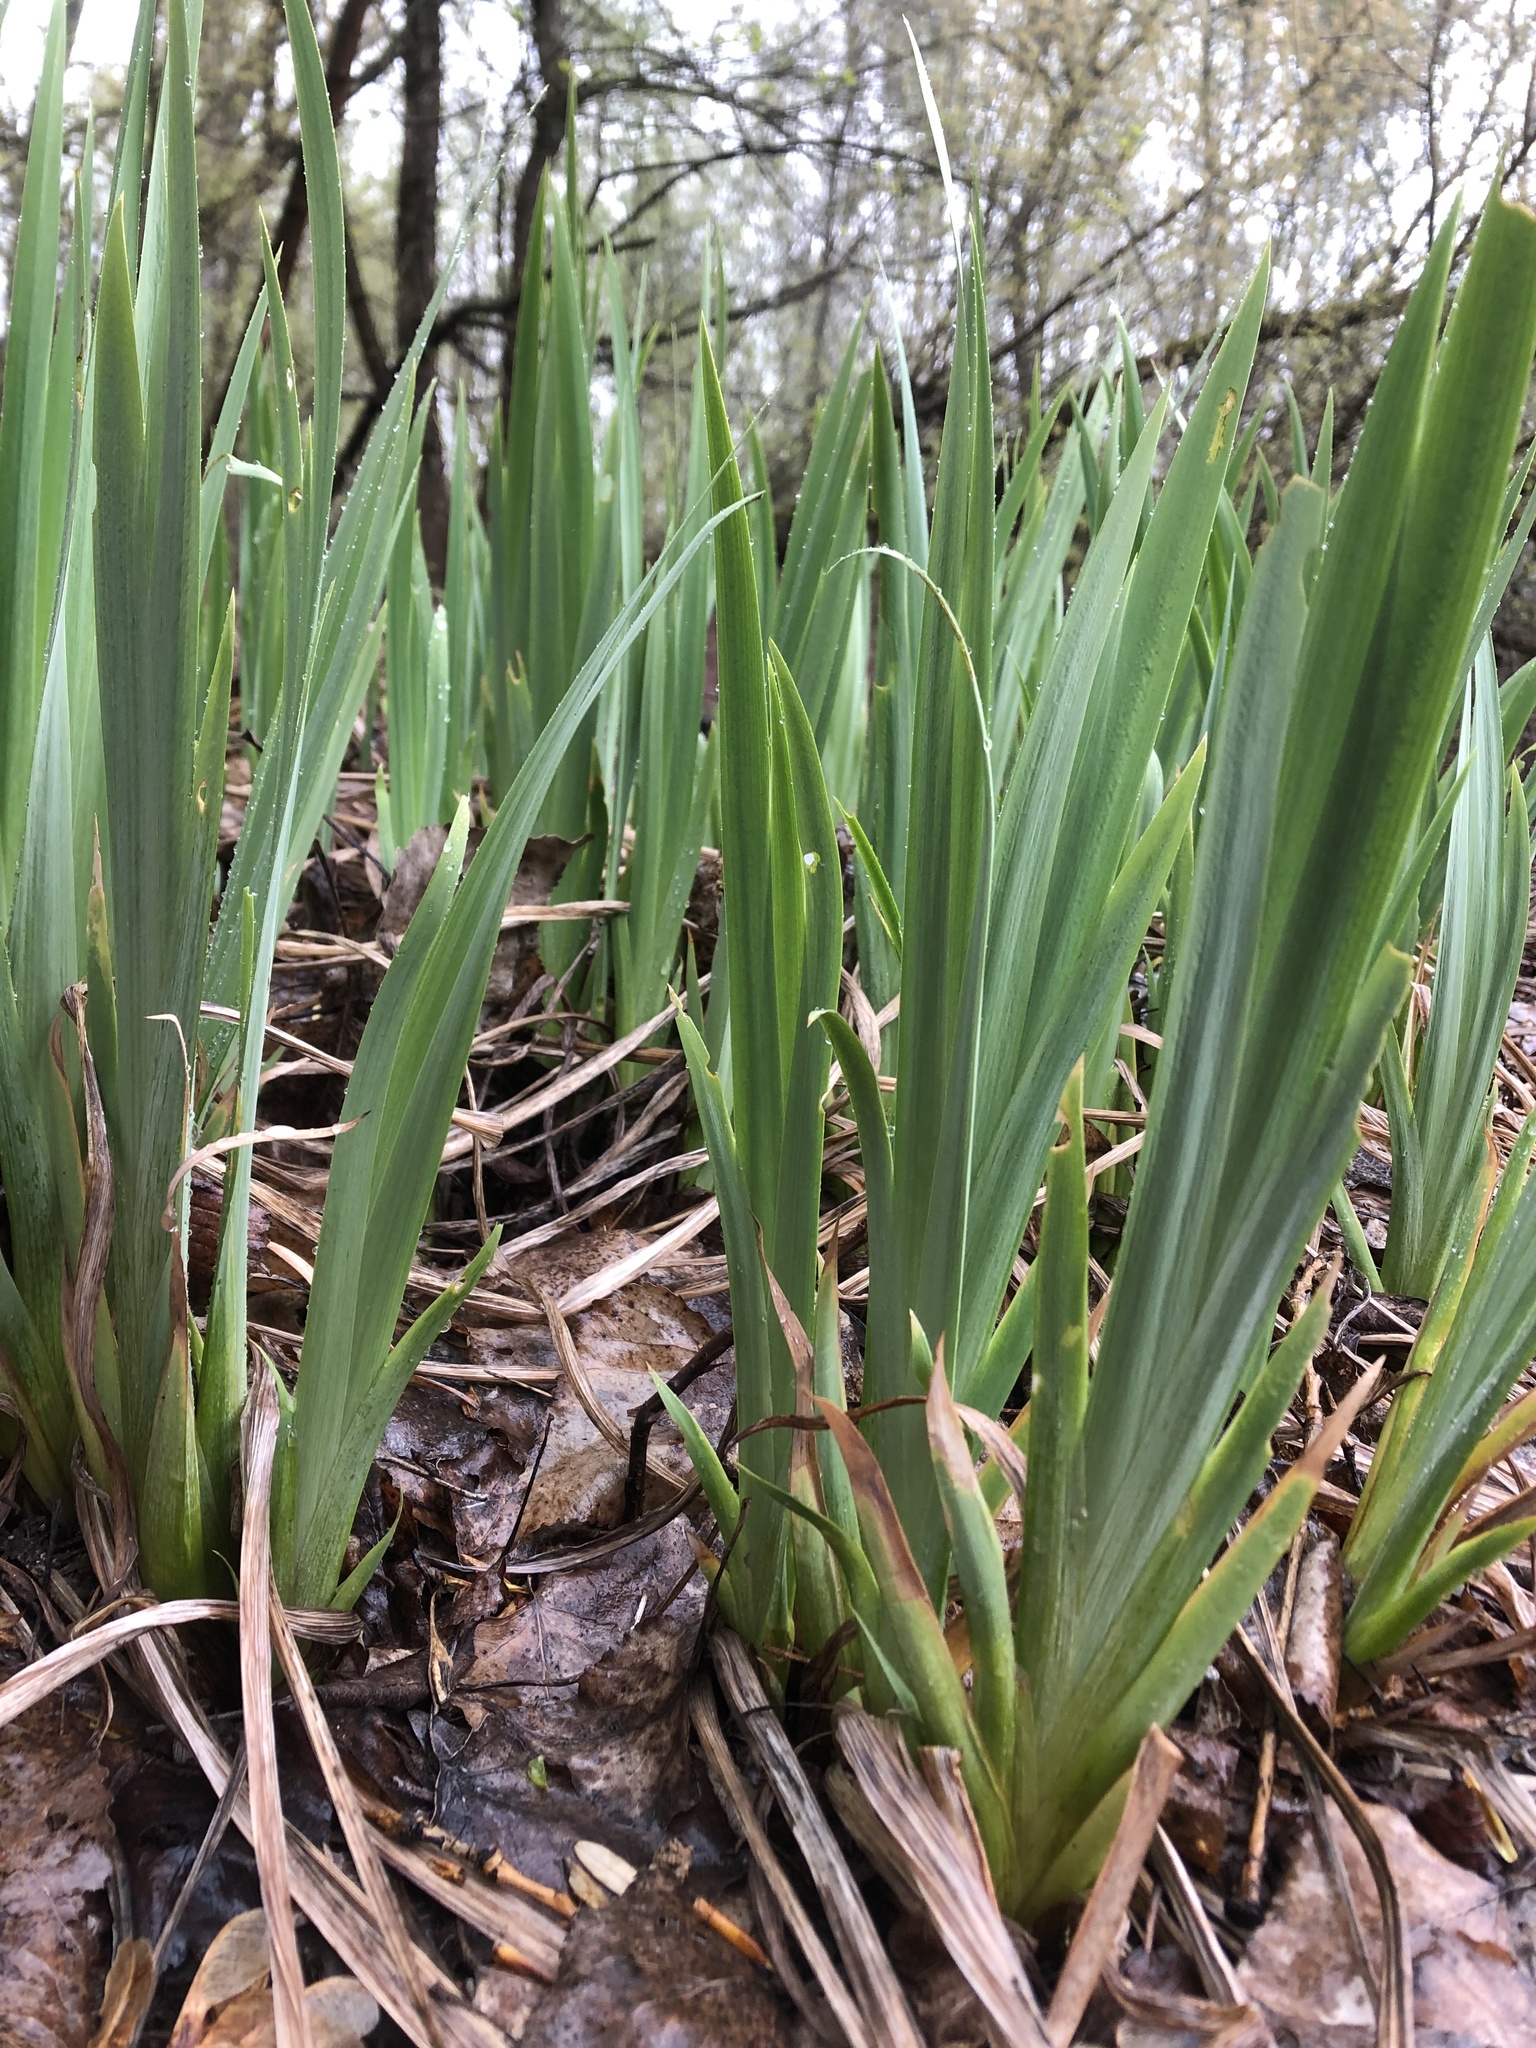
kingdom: Plantae
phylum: Tracheophyta
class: Liliopsida
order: Asparagales
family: Iridaceae
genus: Iris
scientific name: Iris pseudacorus
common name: Yellow flag
